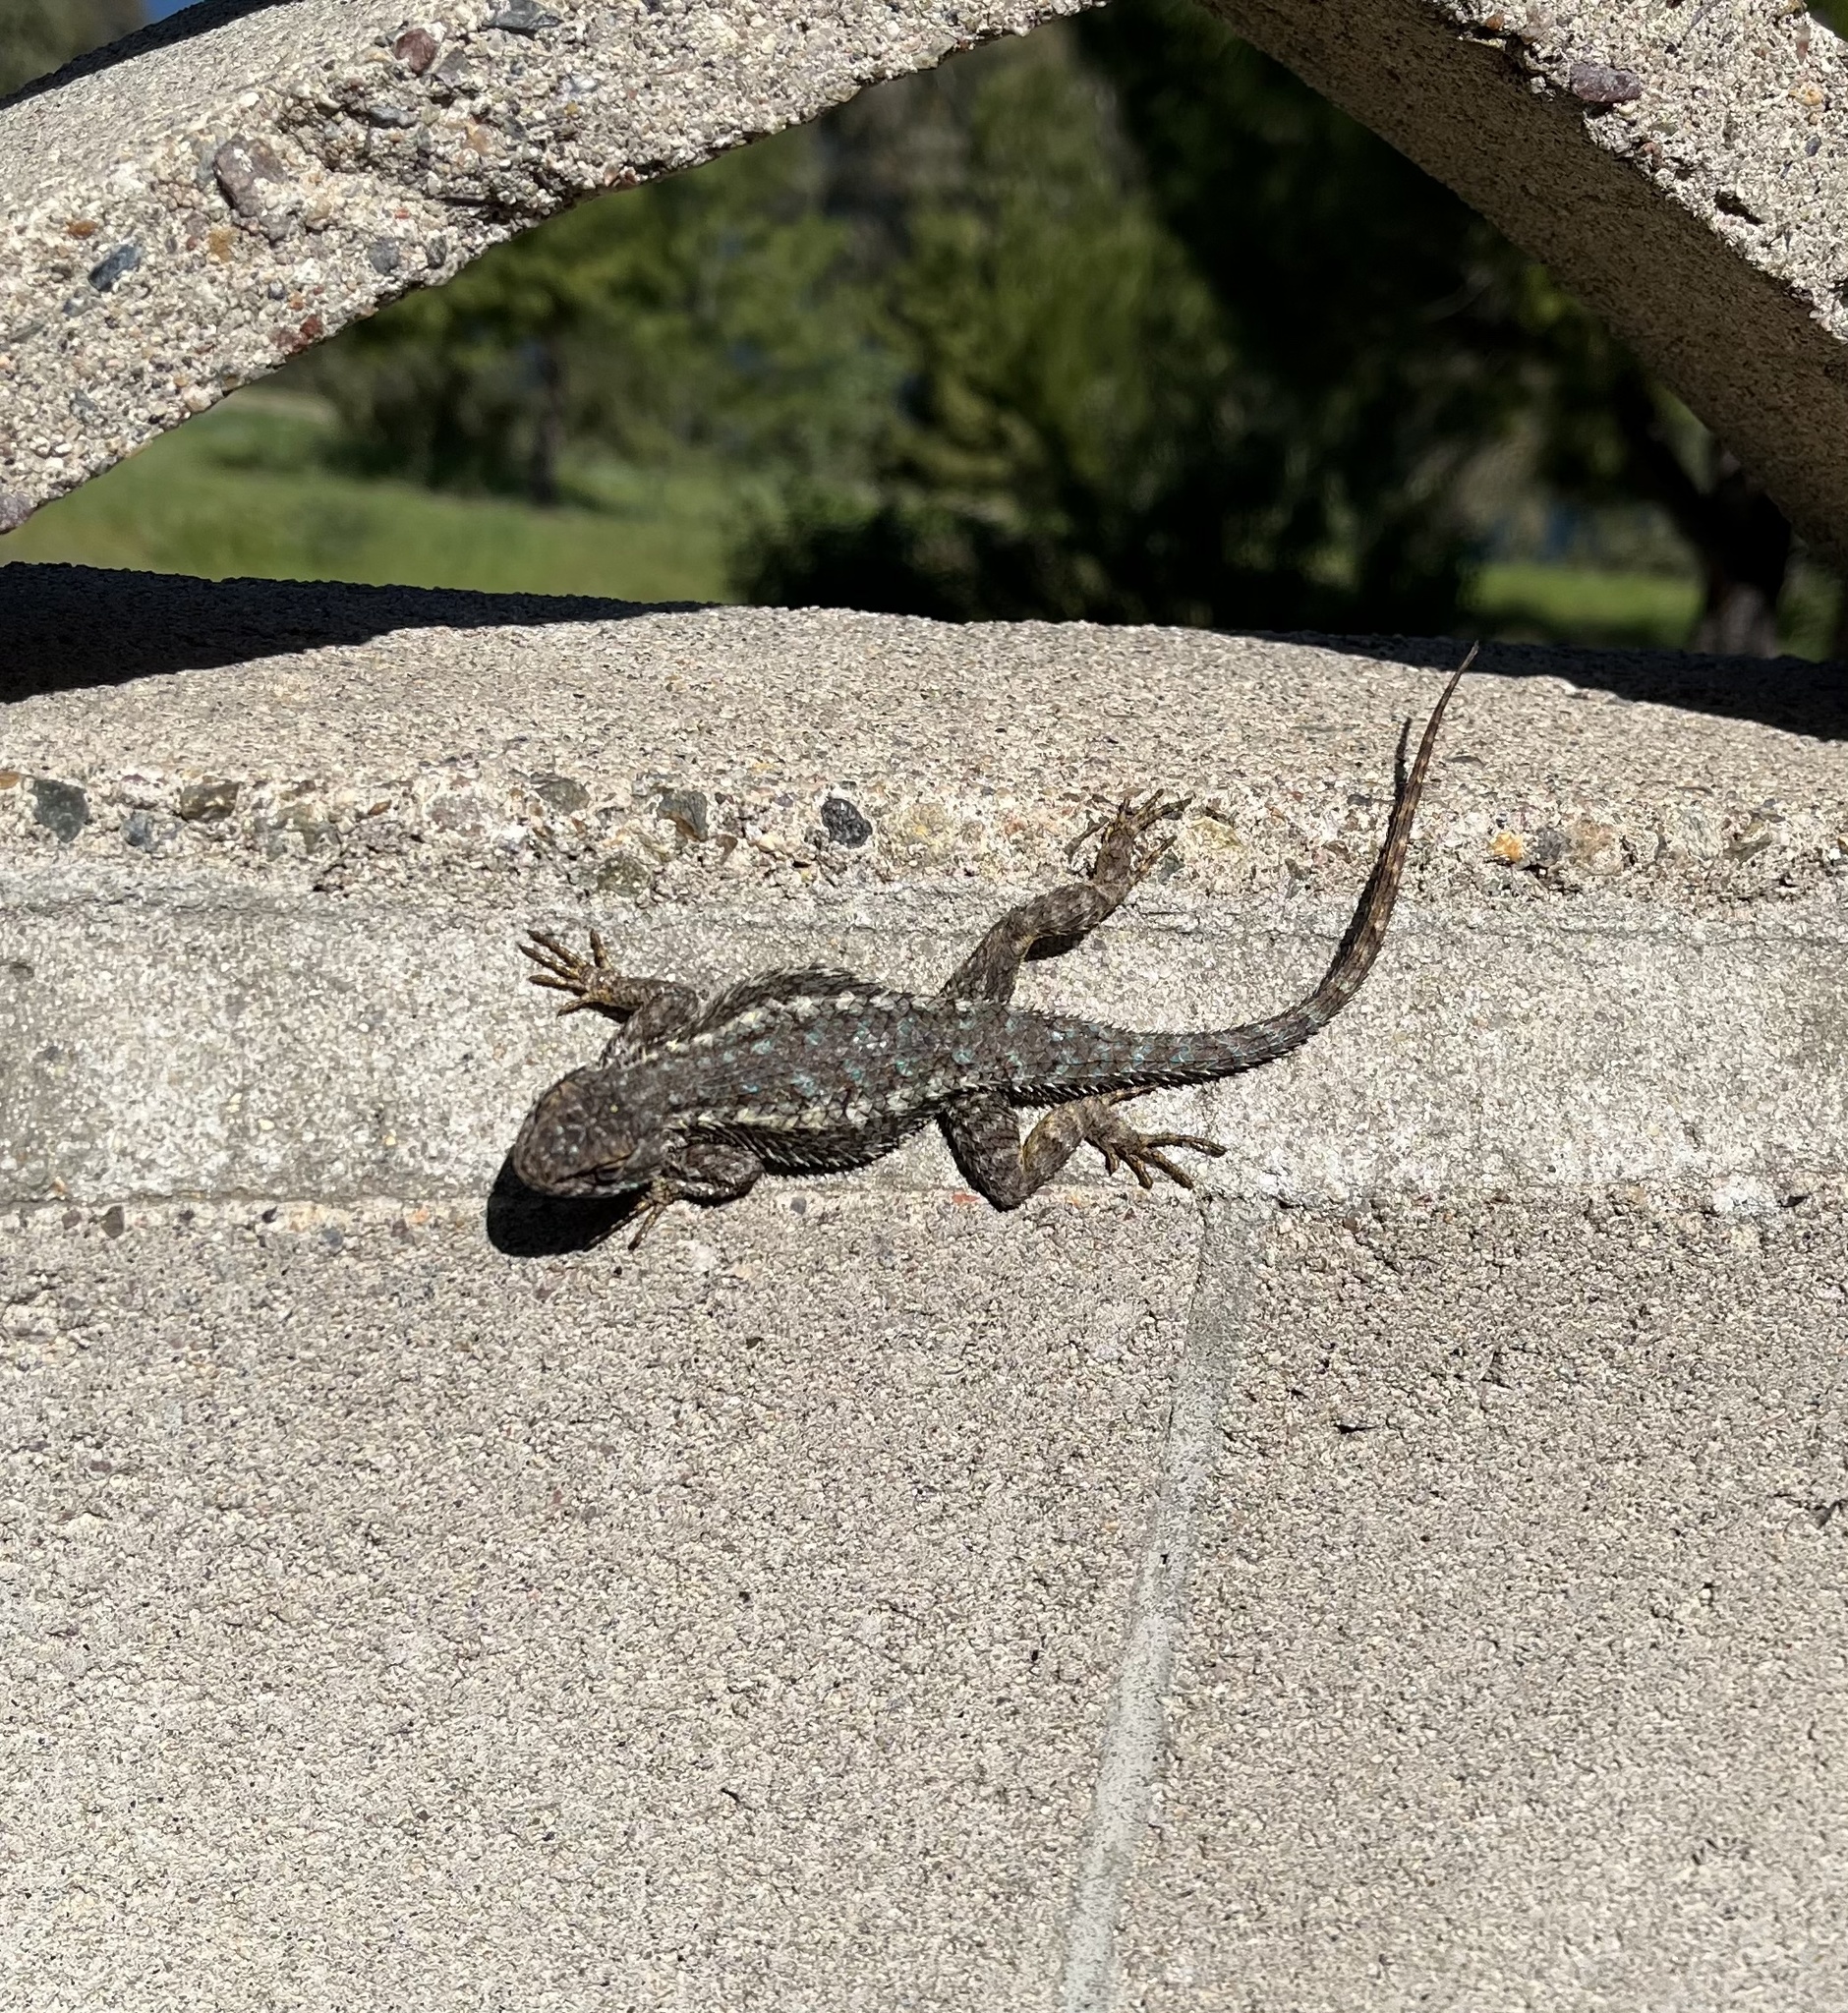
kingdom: Animalia
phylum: Chordata
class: Squamata
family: Phrynosomatidae
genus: Sceloporus
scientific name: Sceloporus occidentalis
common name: Western fence lizard
